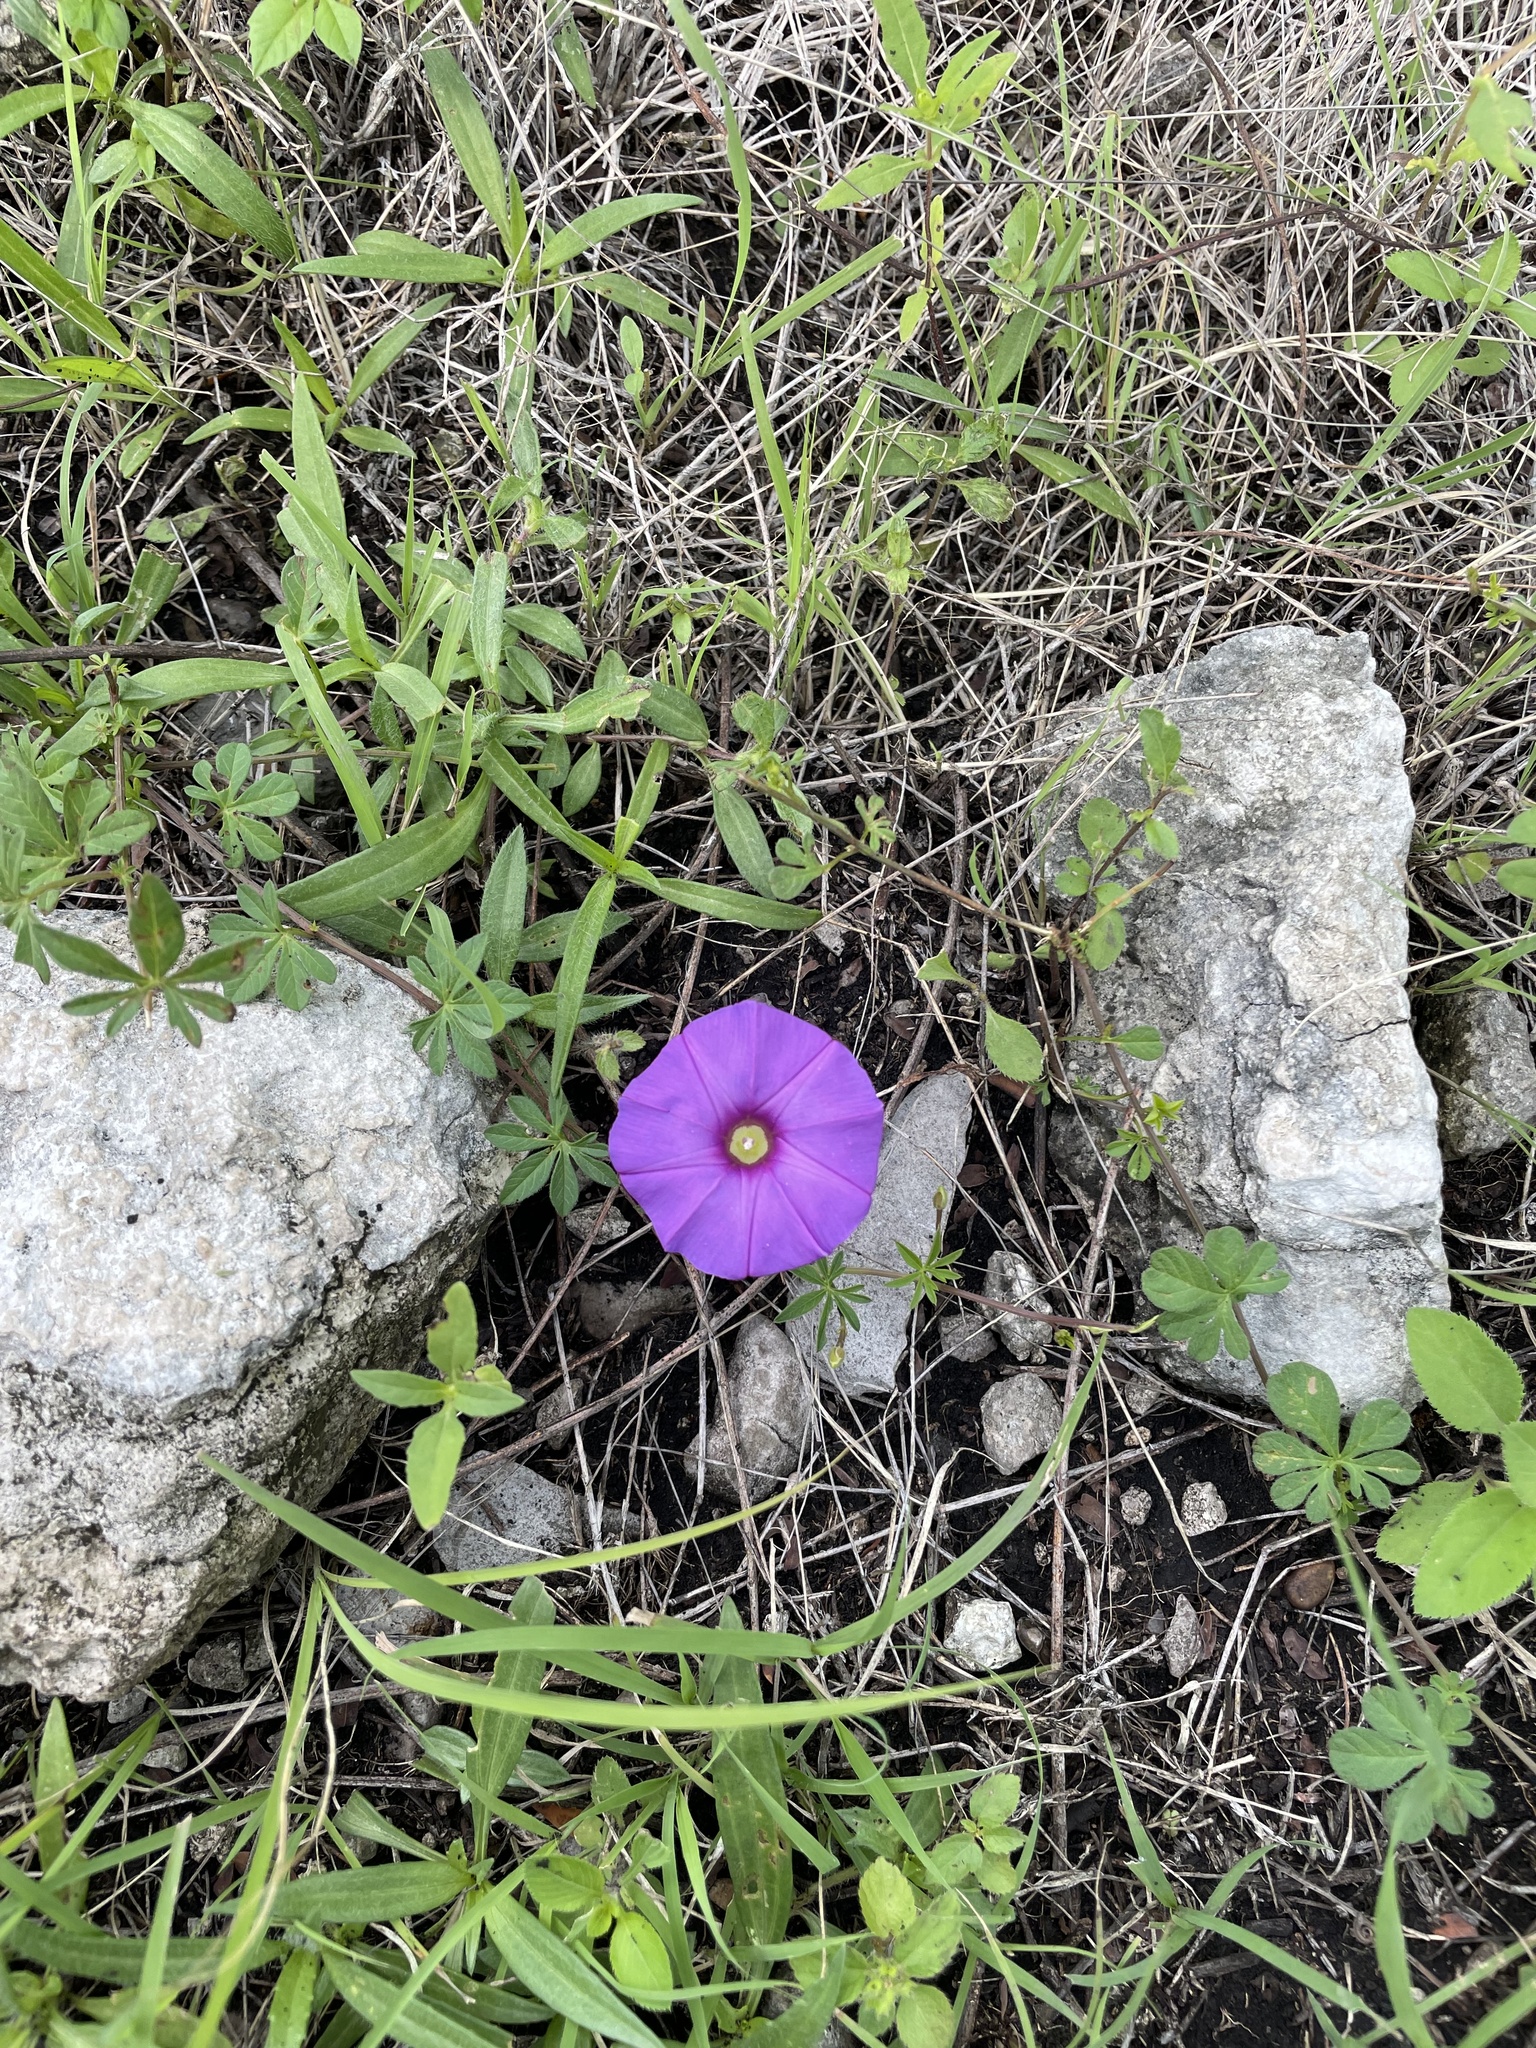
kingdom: Plantae
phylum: Tracheophyta
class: Magnoliopsida
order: Solanales
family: Convolvulaceae
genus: Ipomoea
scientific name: Ipomoea ternifolia
